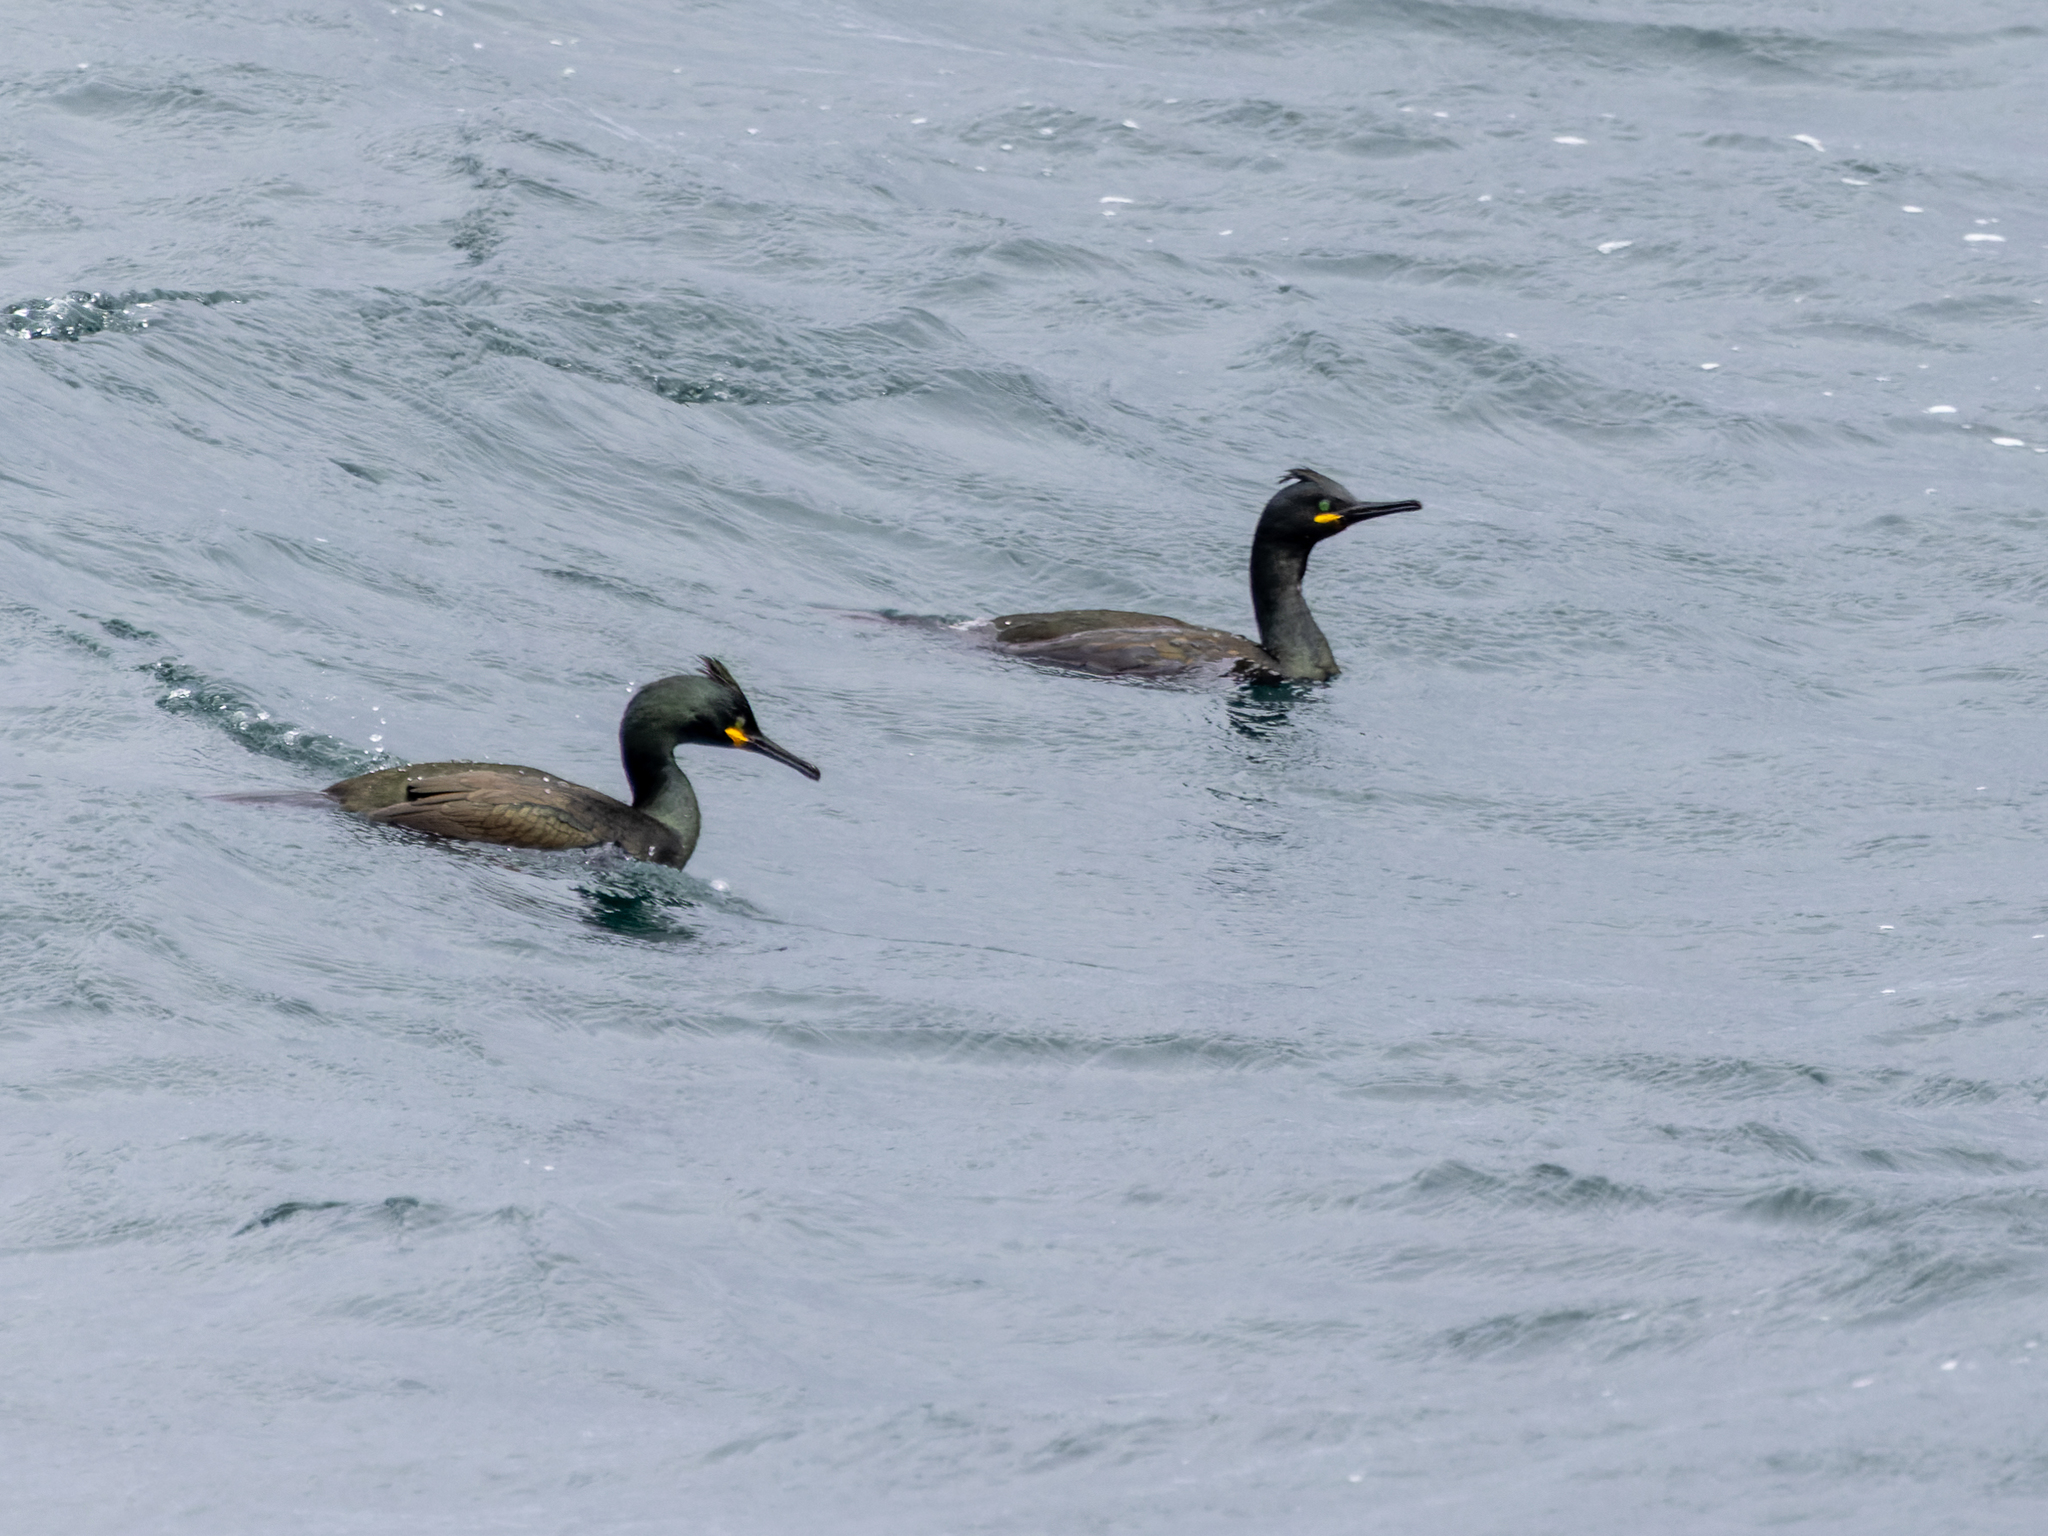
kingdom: Animalia
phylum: Chordata
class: Aves
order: Suliformes
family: Phalacrocoracidae
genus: Phalacrocorax
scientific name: Phalacrocorax aristotelis
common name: European shag
